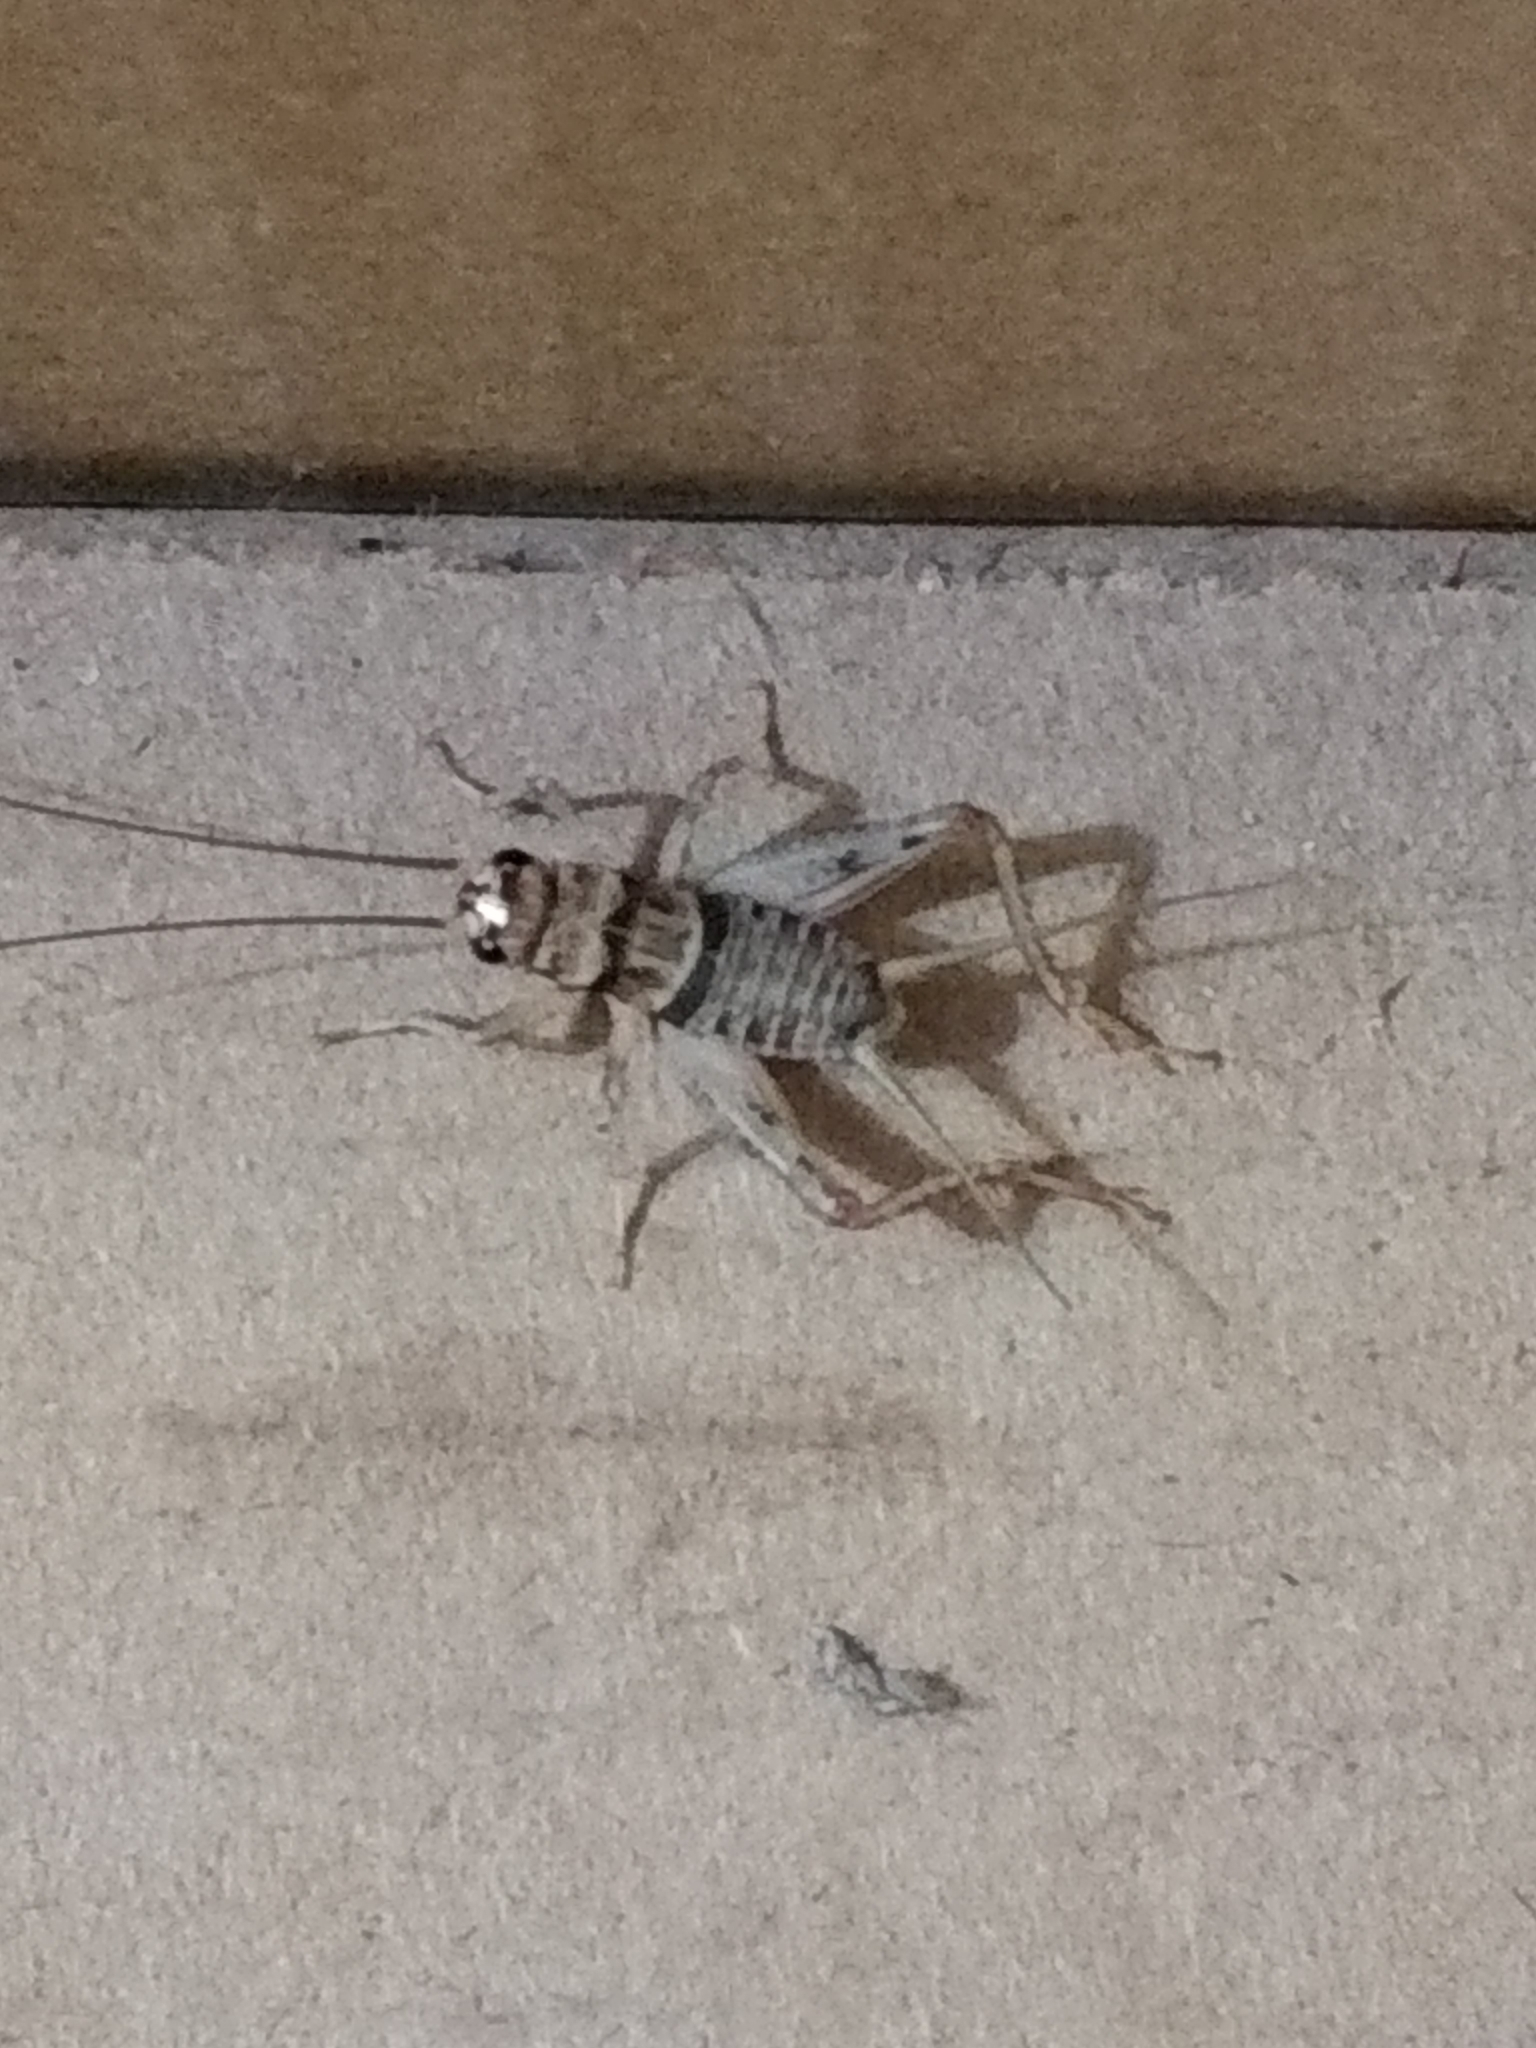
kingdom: Animalia
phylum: Arthropoda
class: Insecta
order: Orthoptera
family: Gryllidae
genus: Gryllodes
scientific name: Gryllodes sigillatus
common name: Tropical house cricket
